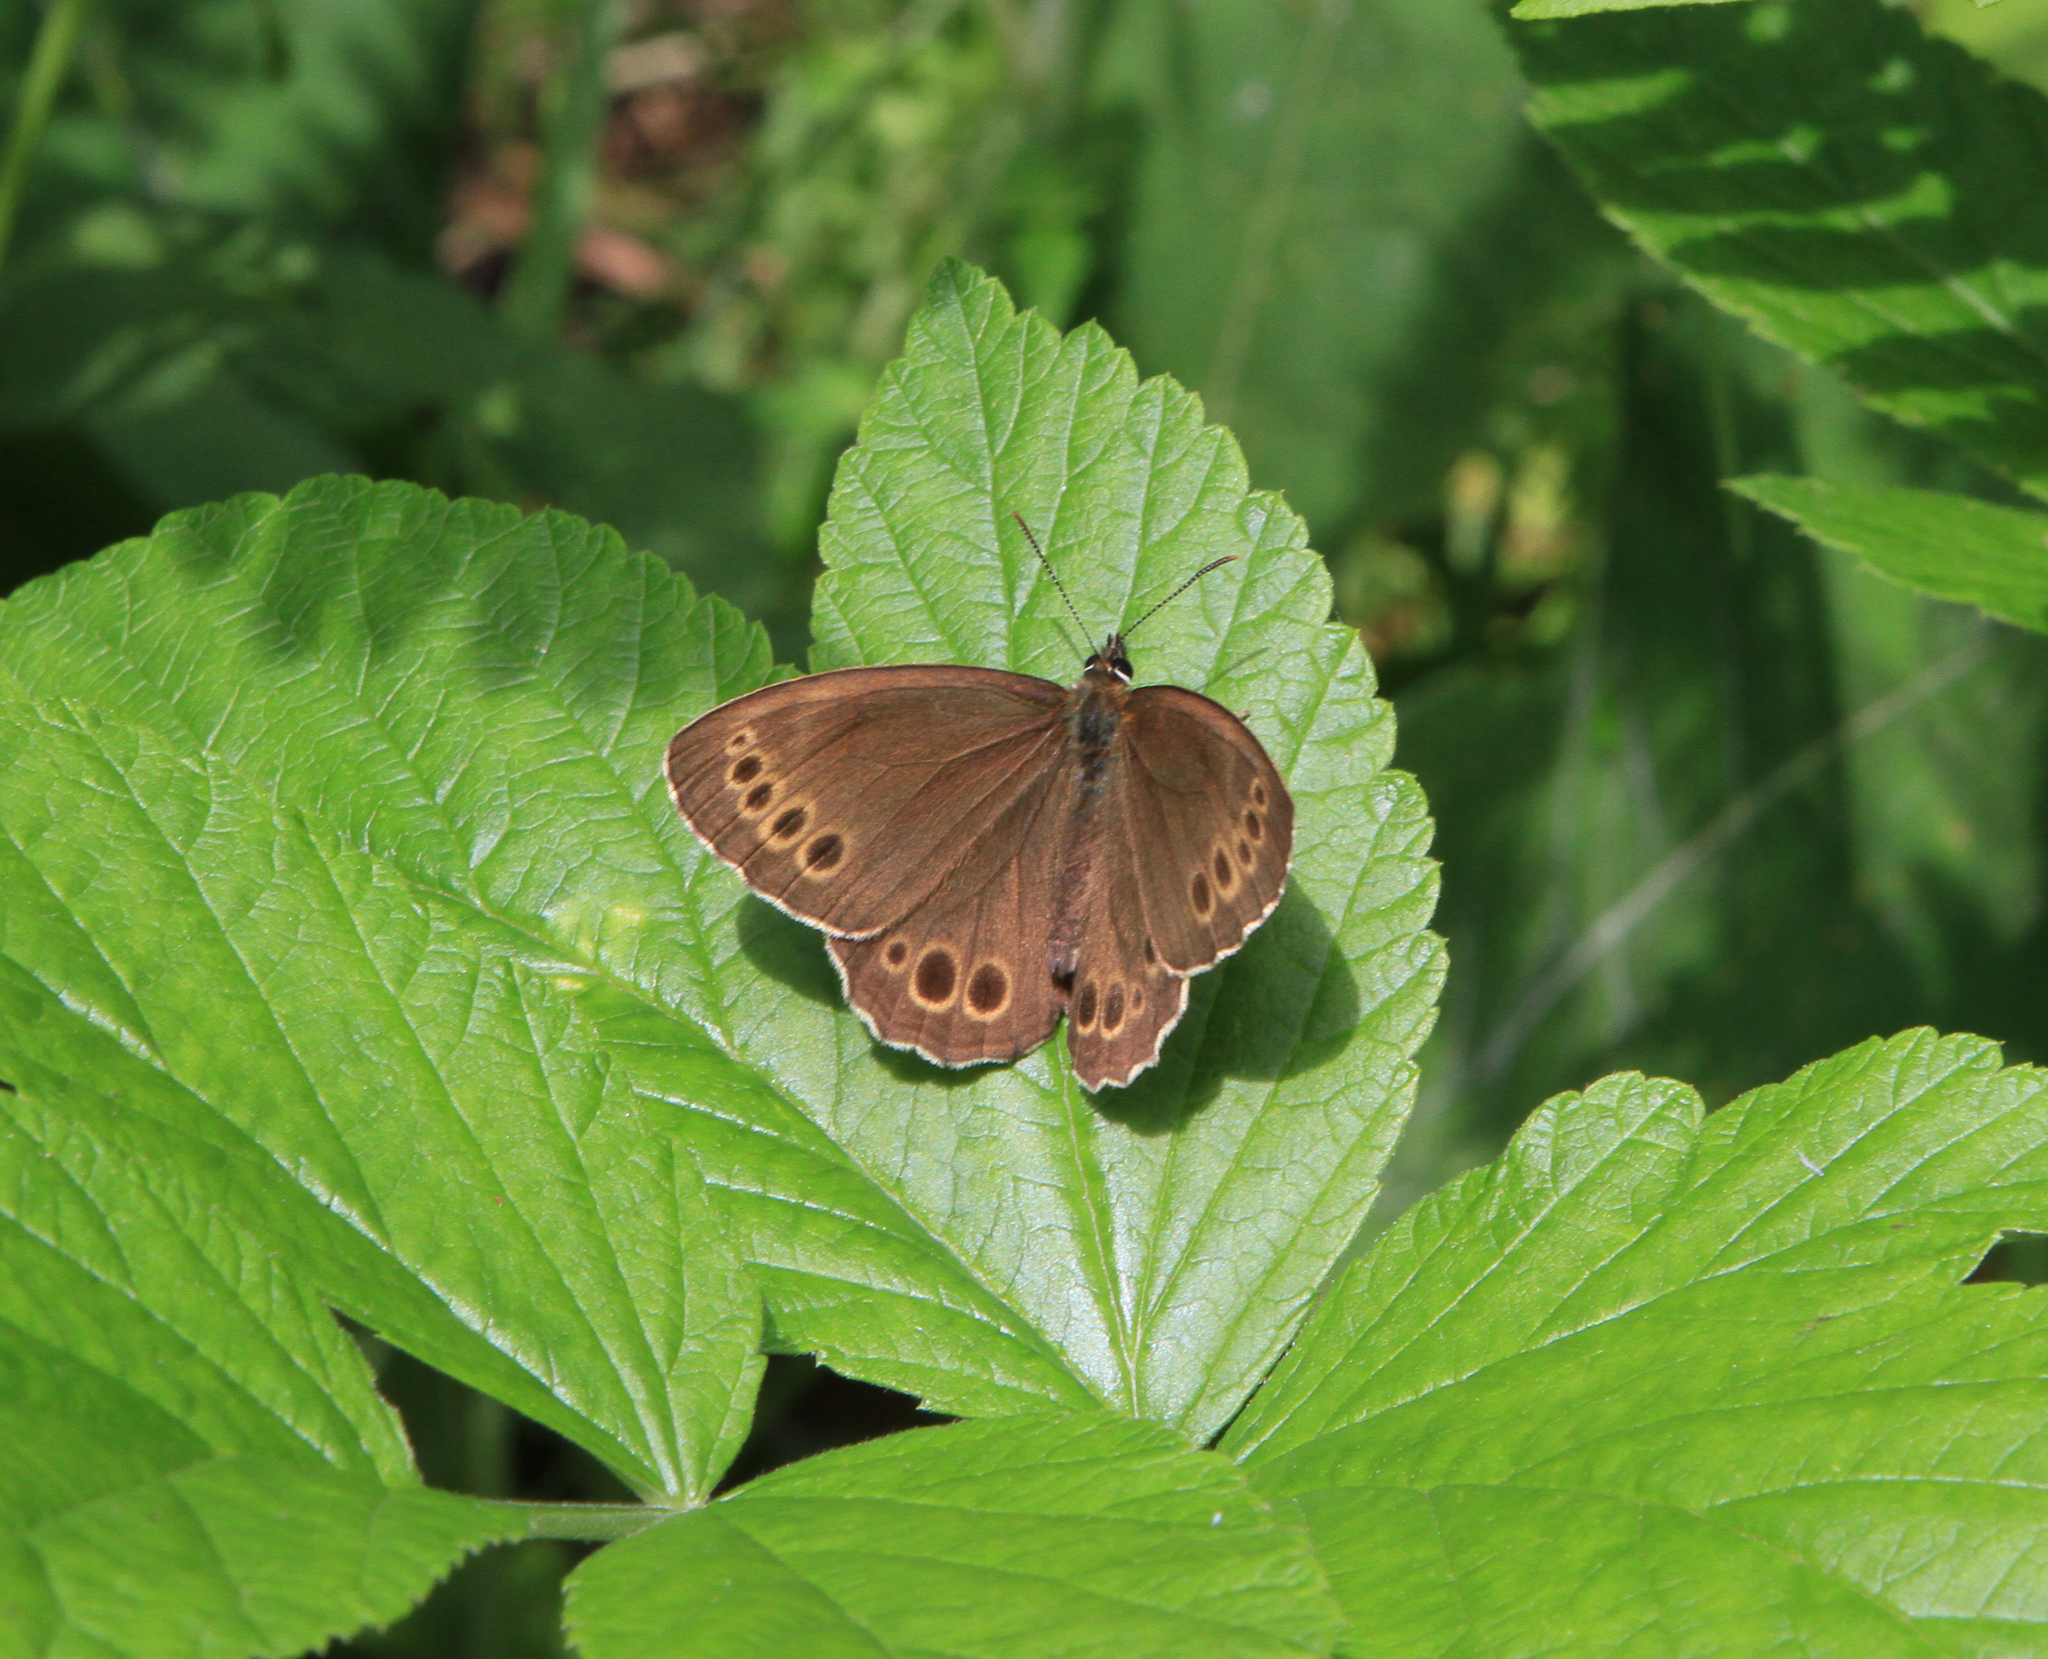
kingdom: Animalia
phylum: Arthropoda
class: Insecta
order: Lepidoptera
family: Nymphalidae
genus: Pararge
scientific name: Pararge Lopinga achine
